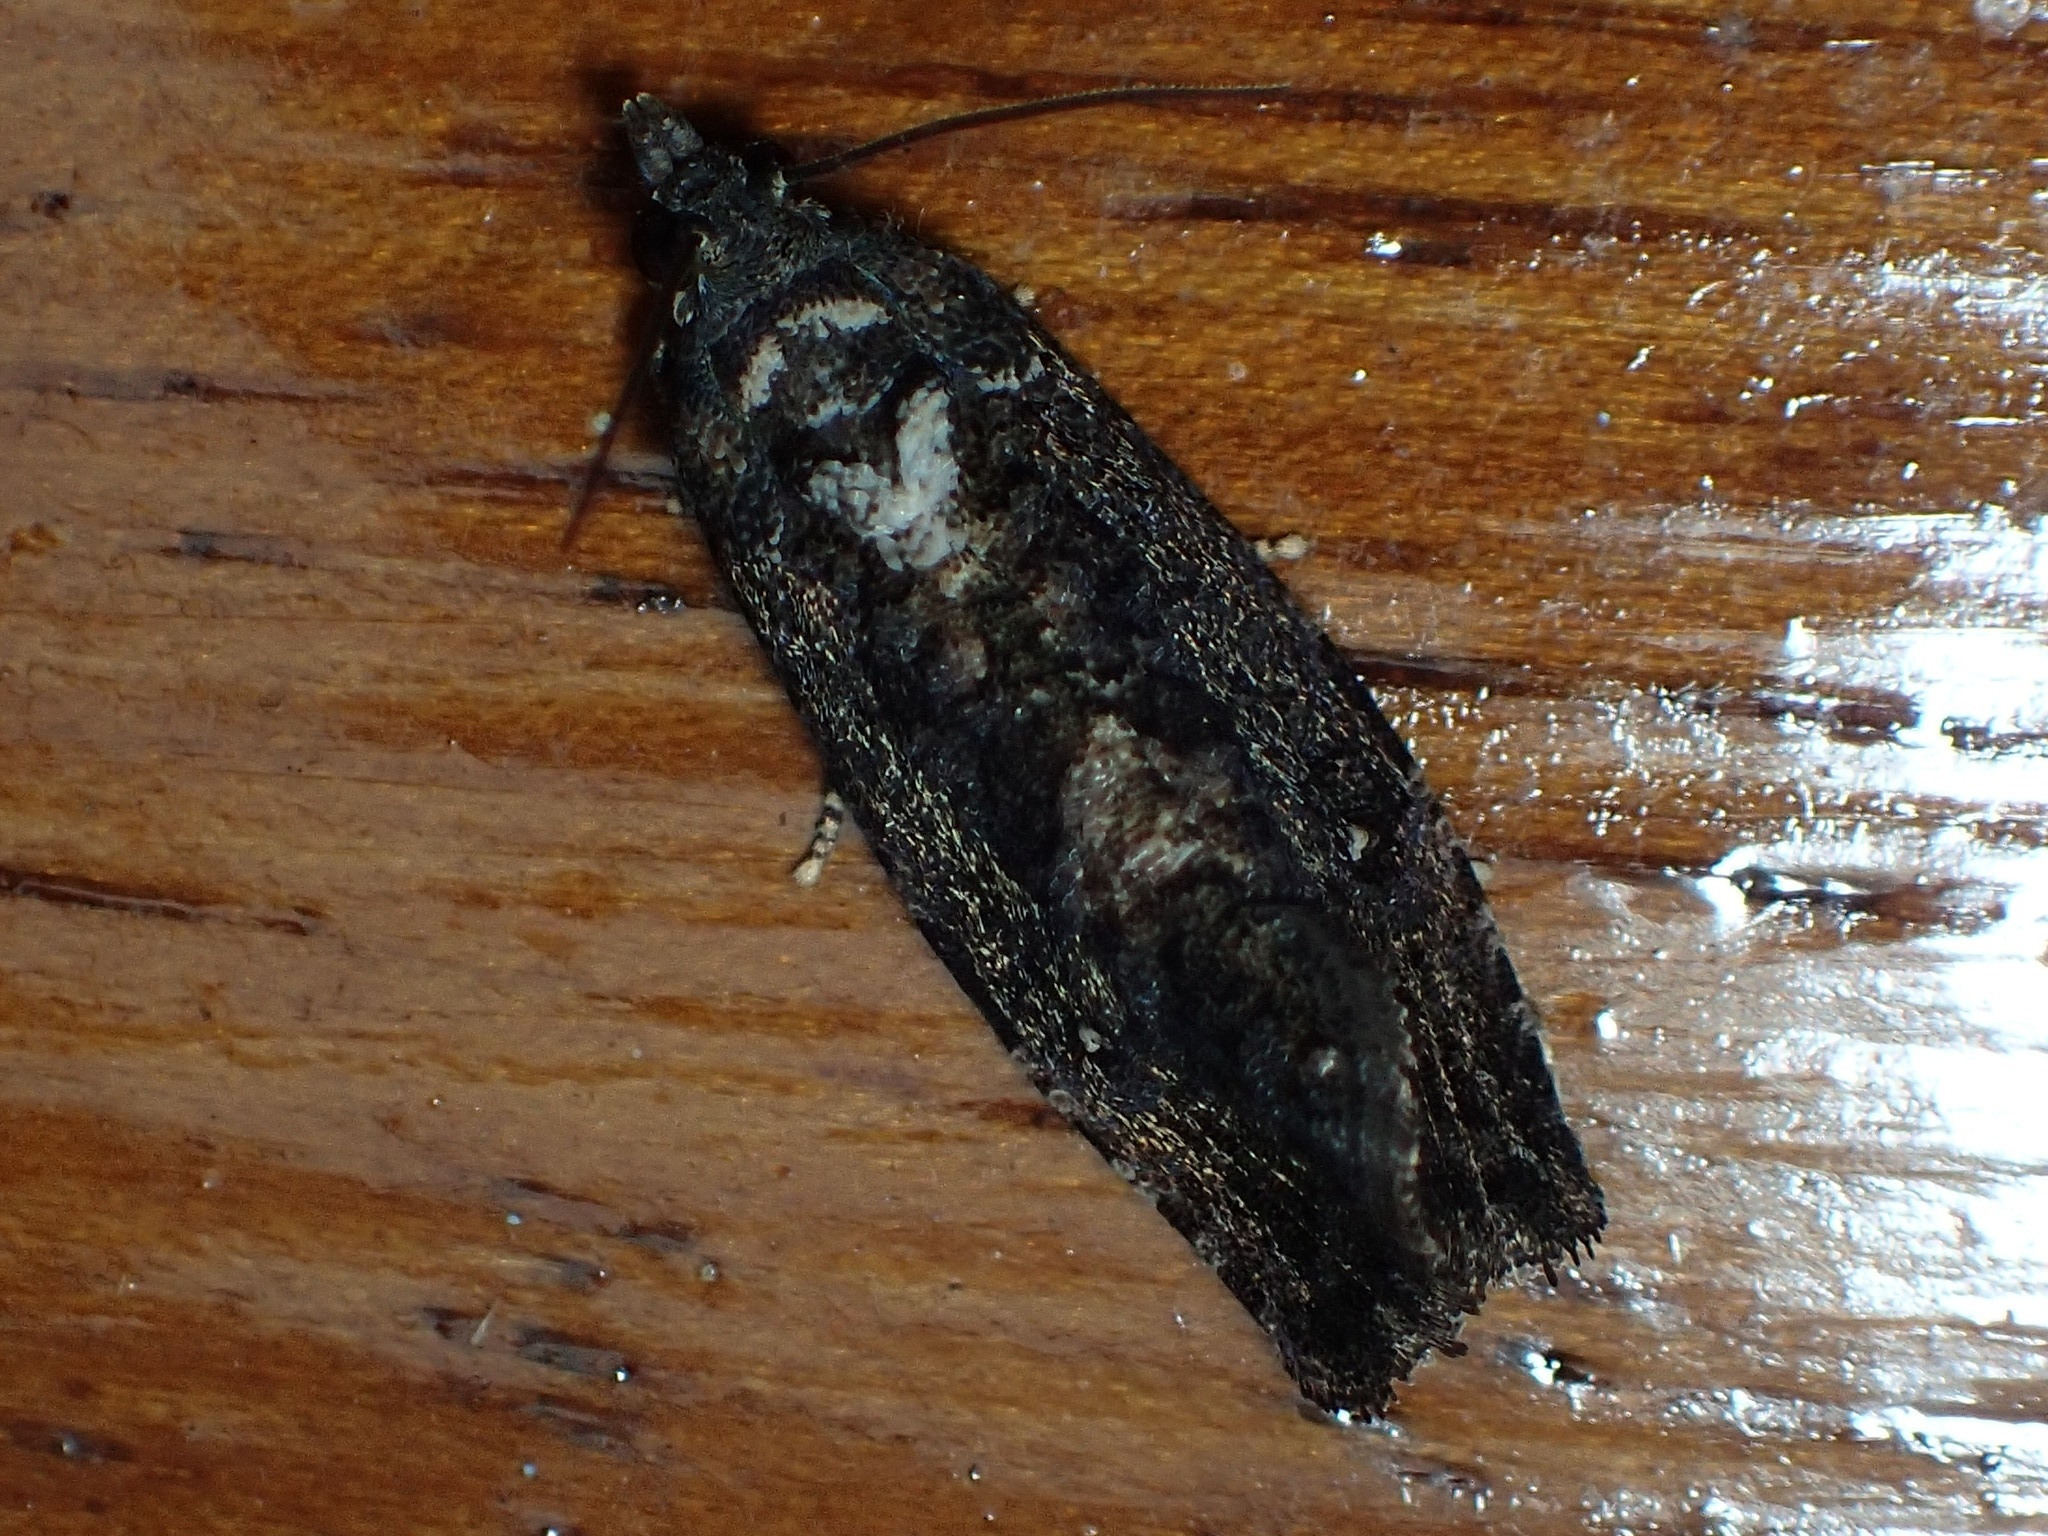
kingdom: Animalia
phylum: Arthropoda
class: Insecta
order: Lepidoptera
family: Tortricidae
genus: Gymnandrosoma
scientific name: Gymnandrosoma punctidiscanum
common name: Dotted ecdytolopha moth
